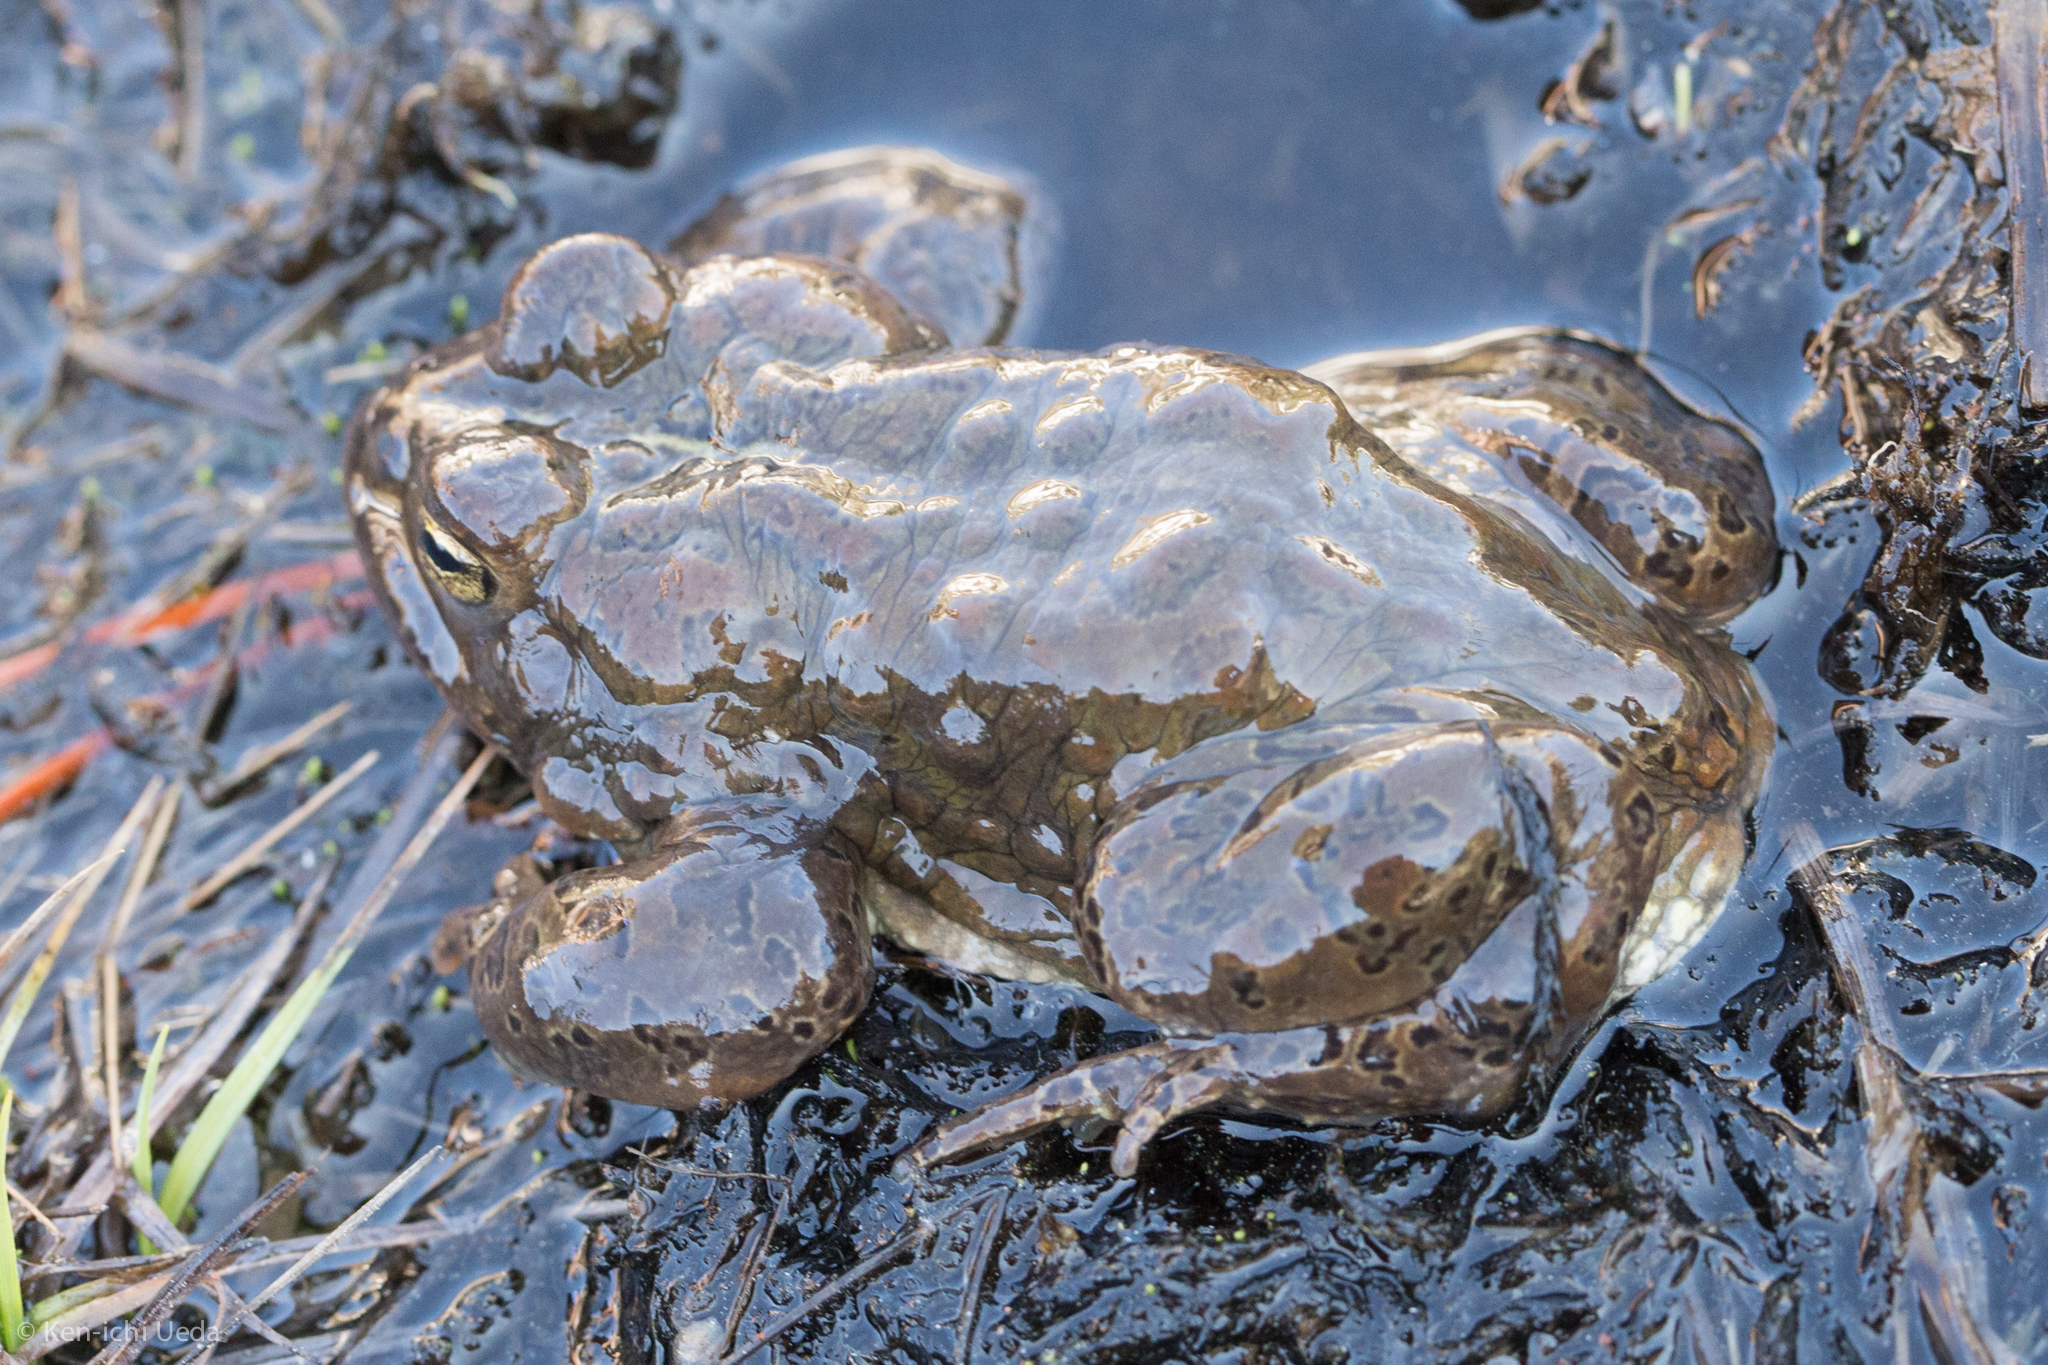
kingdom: Animalia
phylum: Chordata
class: Amphibia
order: Anura
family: Bufonidae
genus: Anaxyrus
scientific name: Anaxyrus canorus
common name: Yosemite toad
